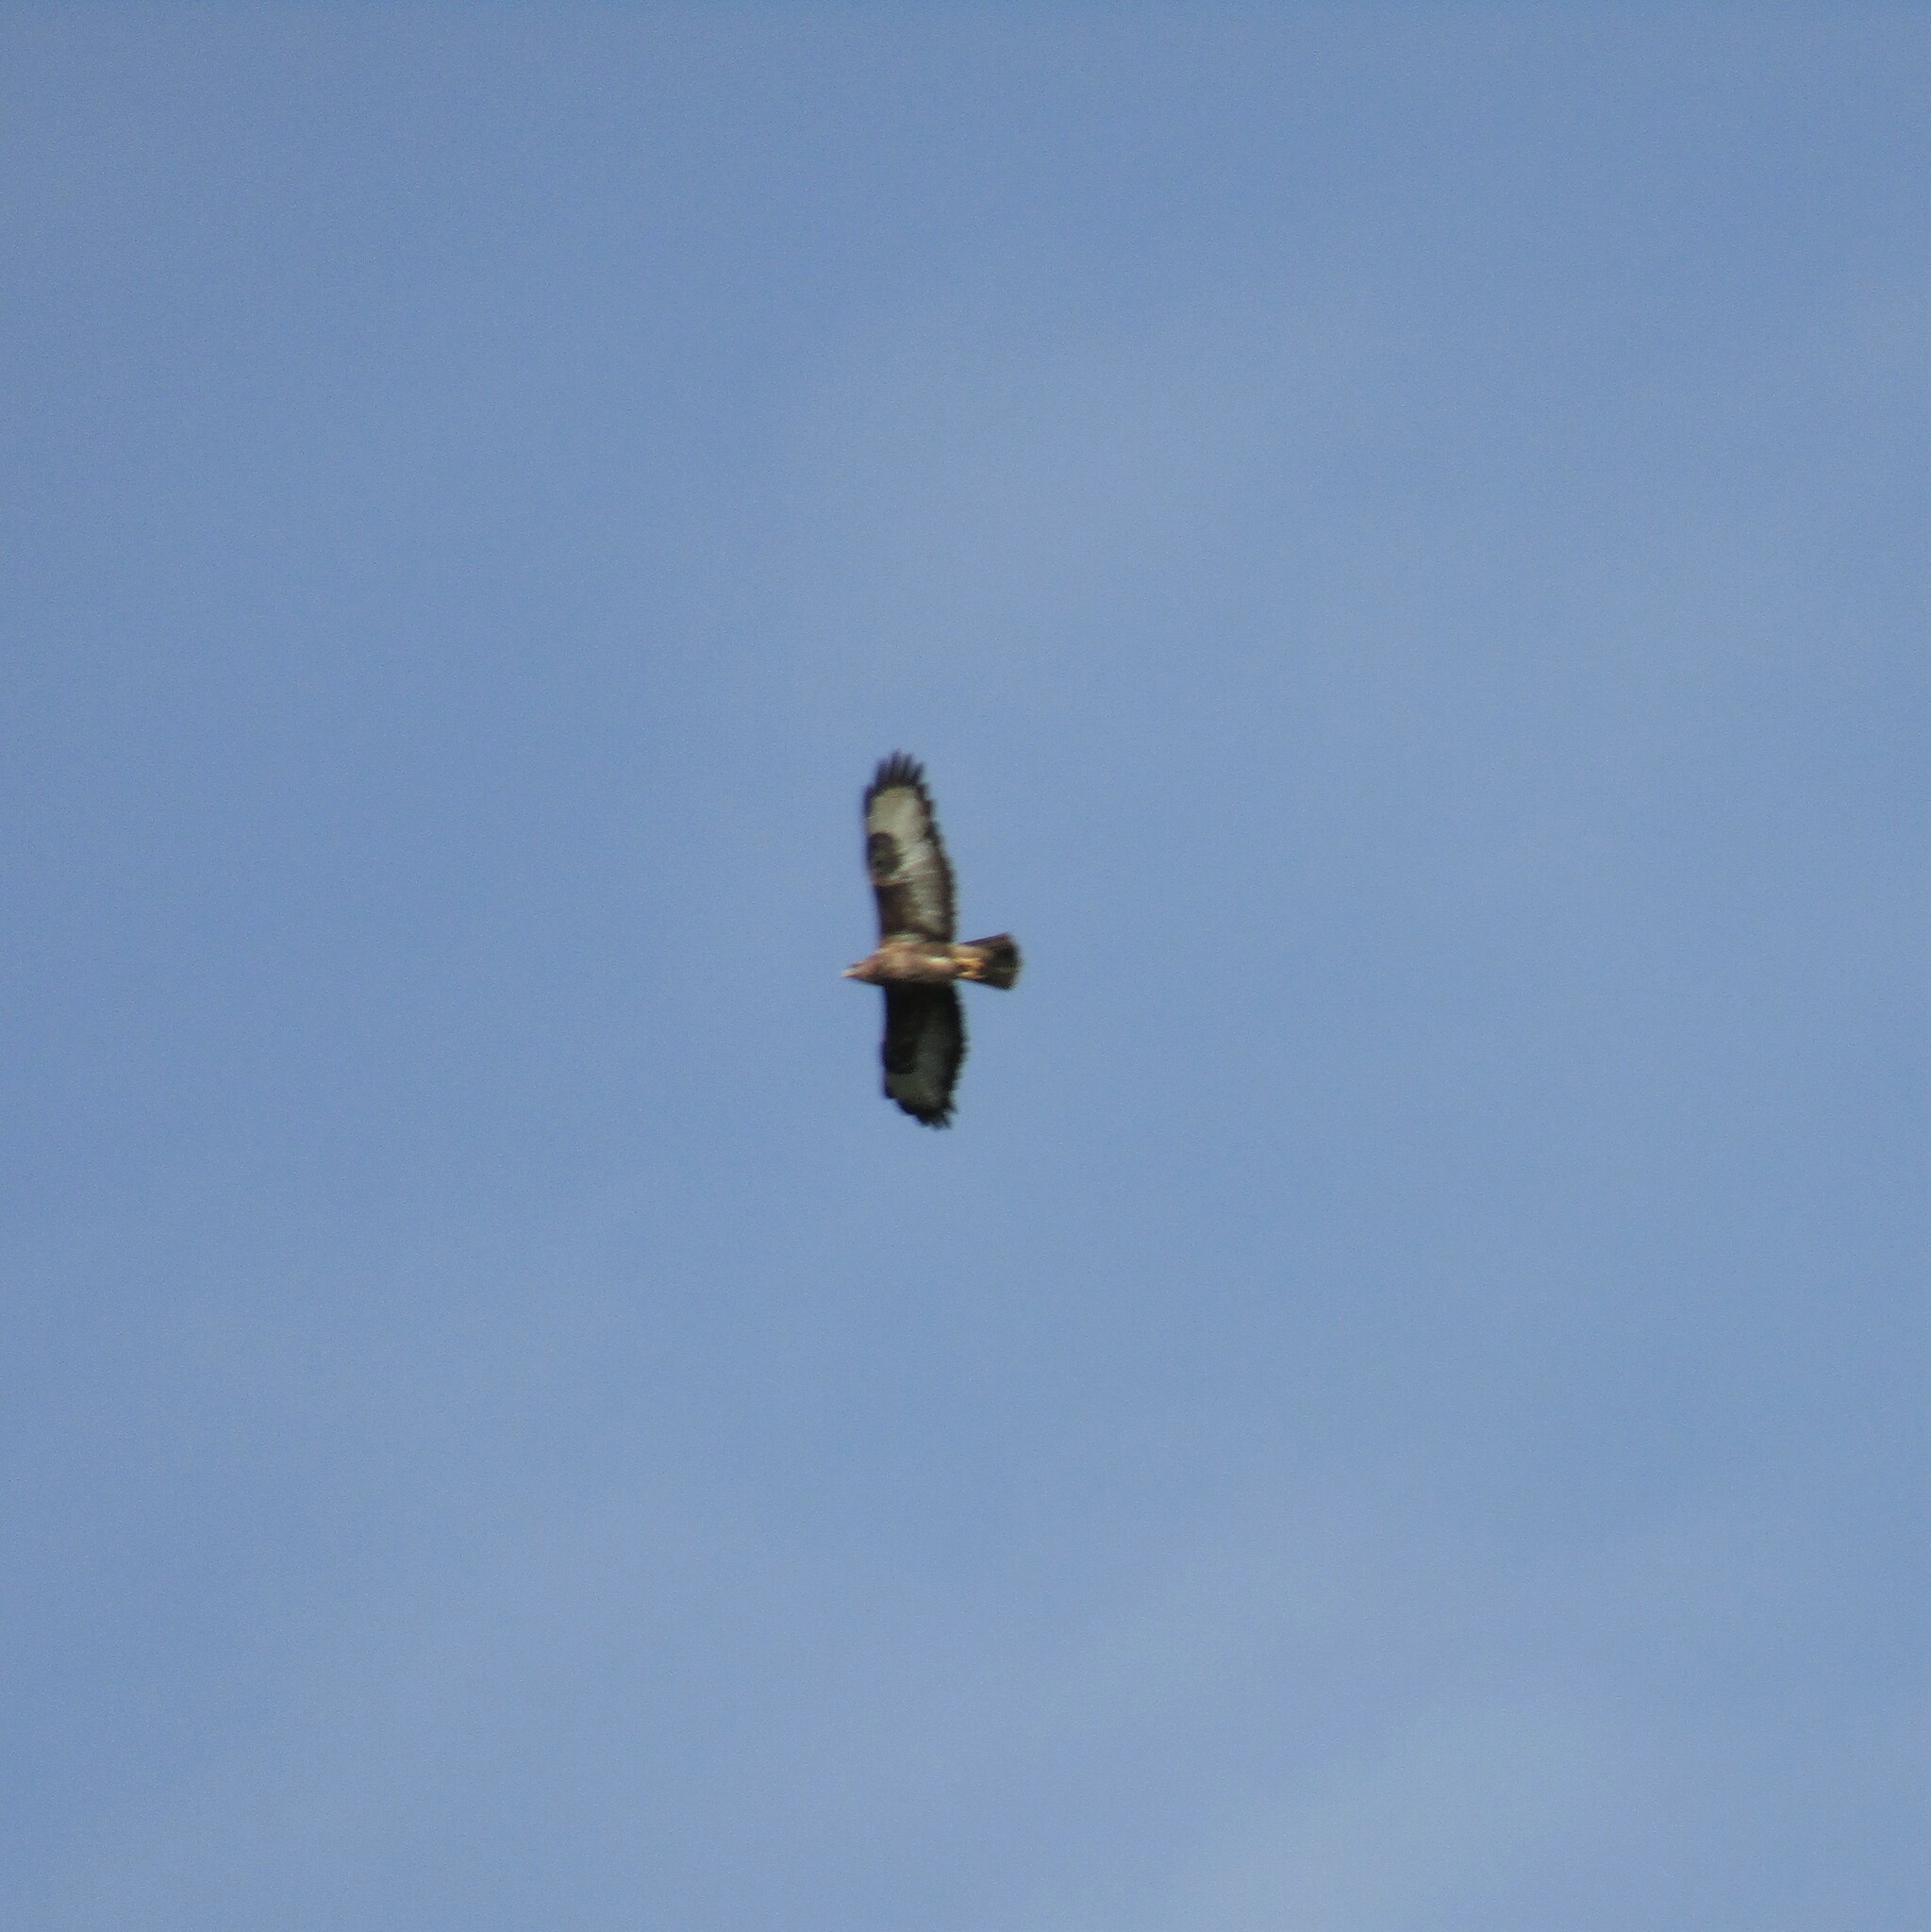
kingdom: Animalia
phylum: Chordata
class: Aves
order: Accipitriformes
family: Accipitridae
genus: Buteo
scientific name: Buteo buteo
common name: Common buzzard
